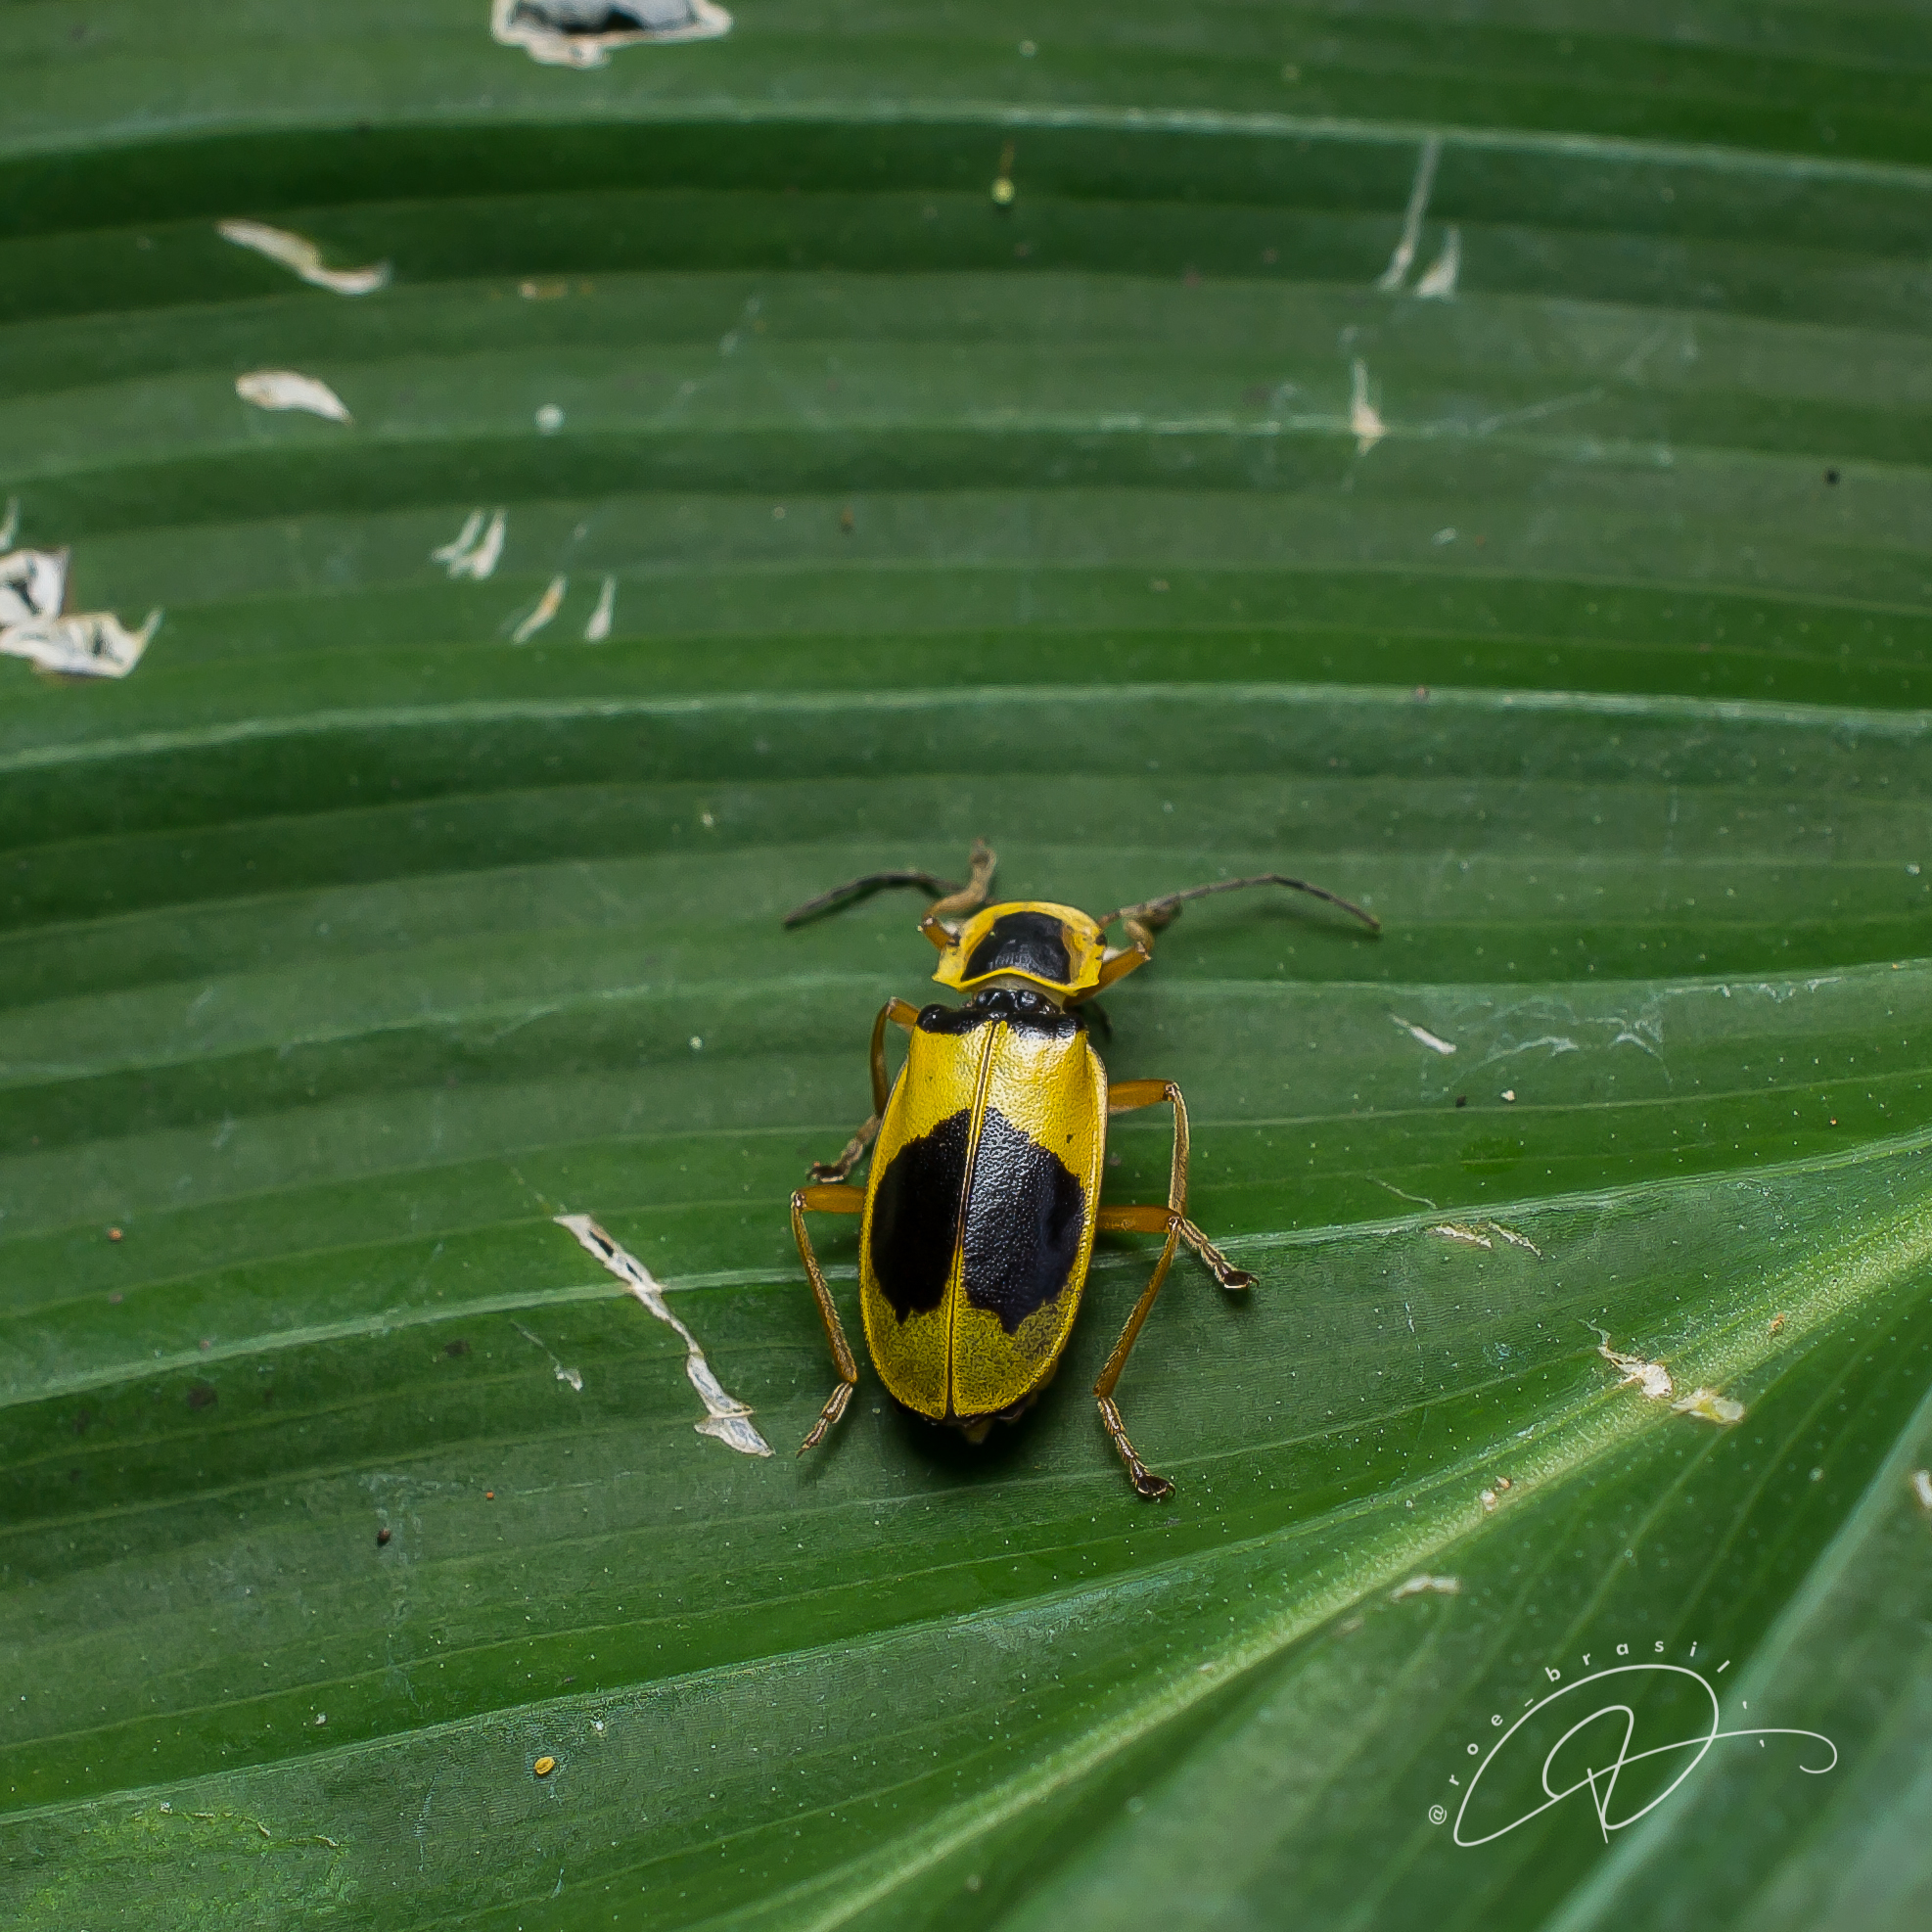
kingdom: Animalia
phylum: Arthropoda
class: Insecta
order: Coleoptera
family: Cantharidae
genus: Chauliognathus
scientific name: Chauliognathus
